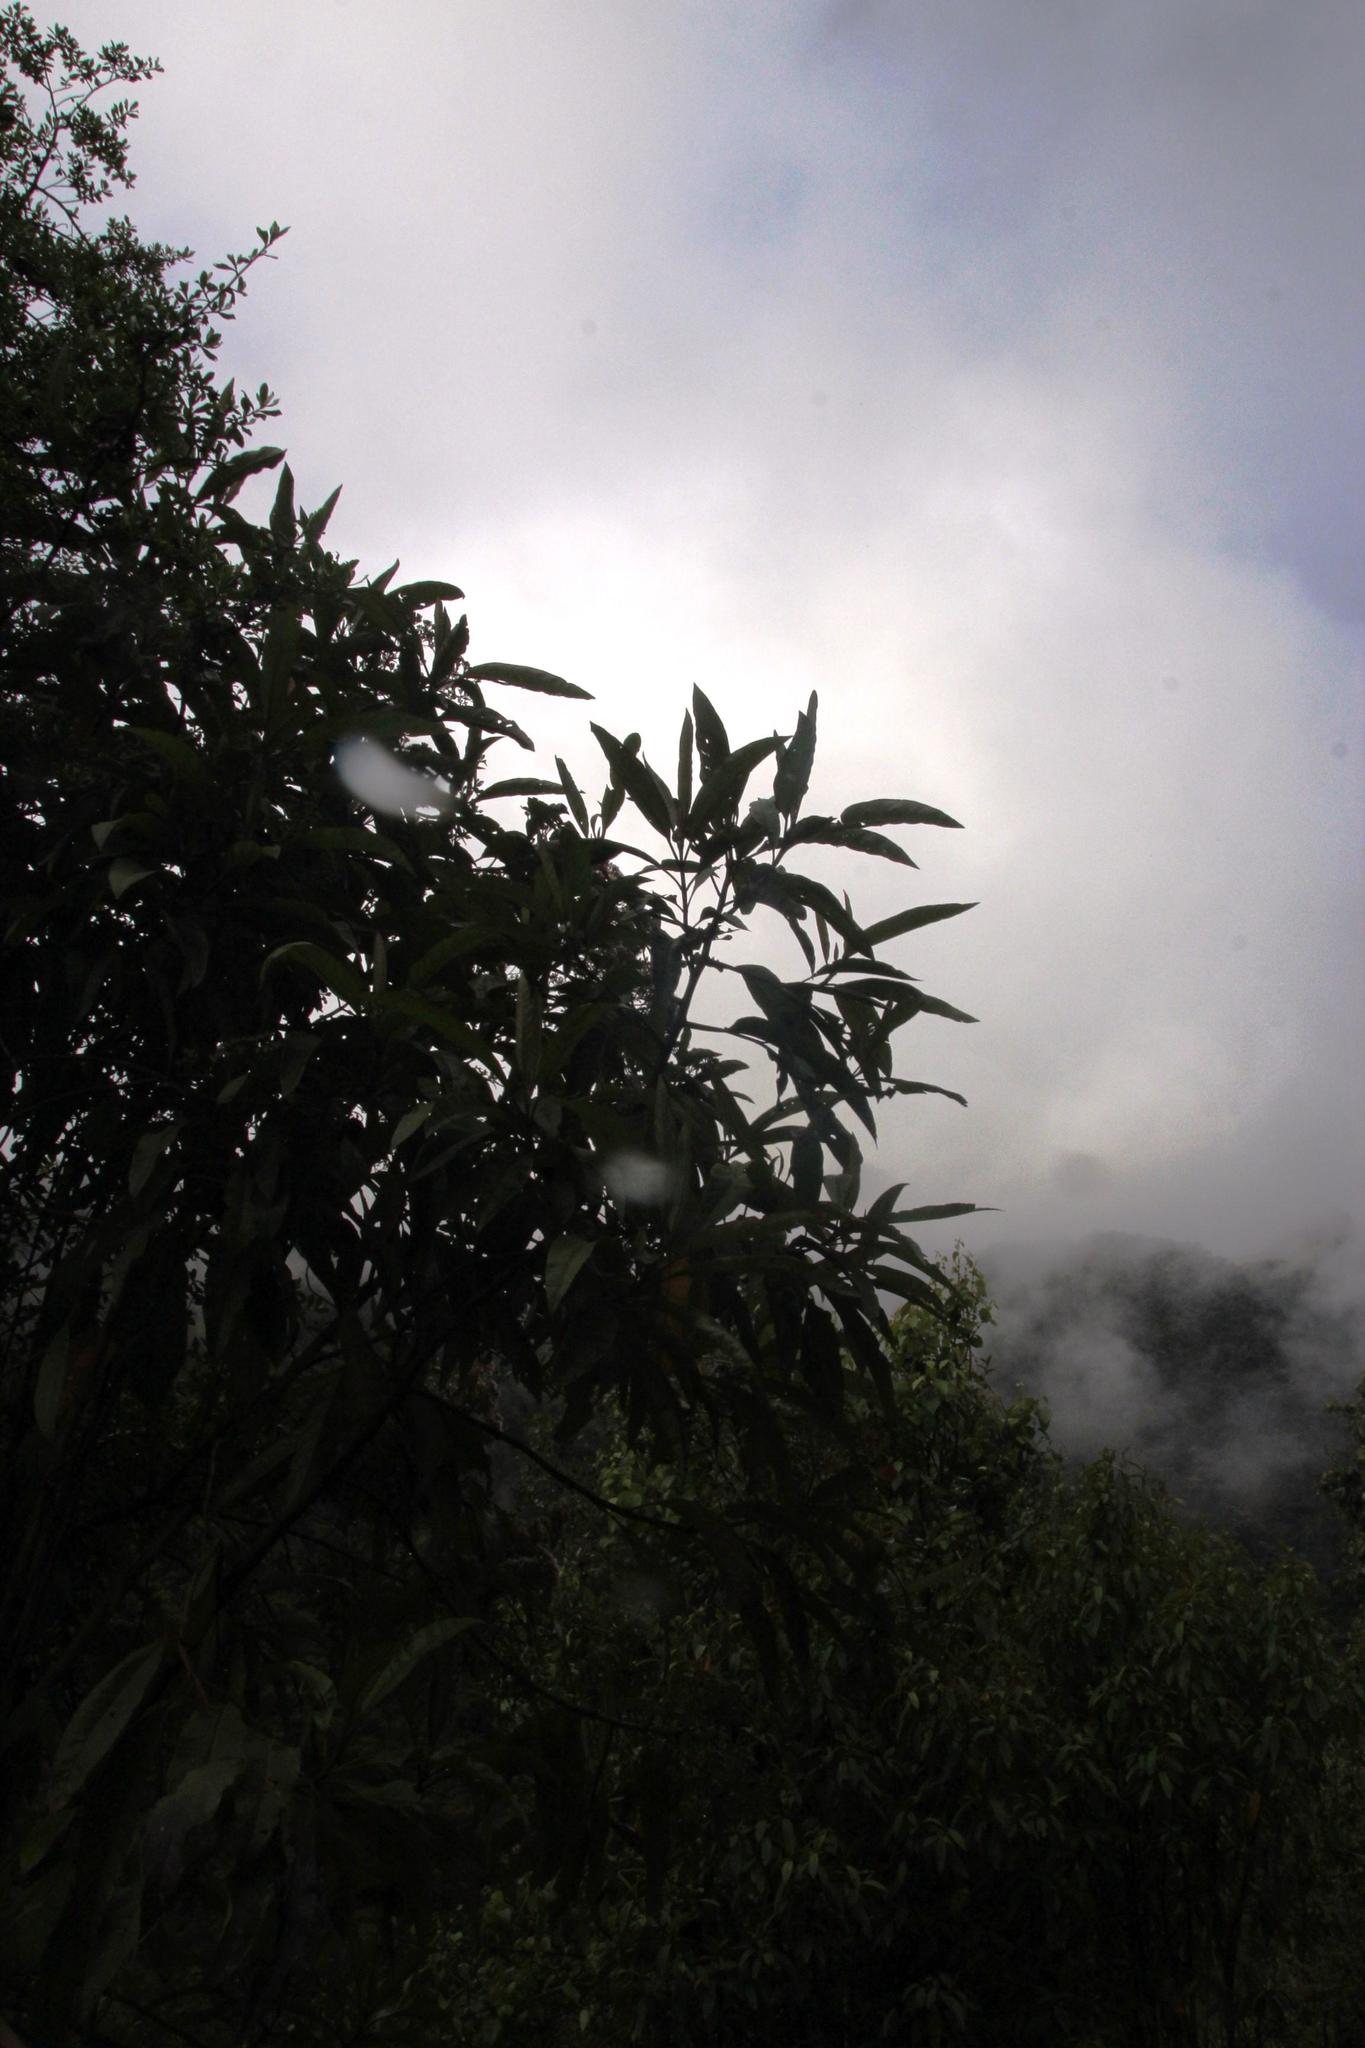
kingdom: Plantae
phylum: Tracheophyta
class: Magnoliopsida
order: Asterales
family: Asteraceae
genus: Aristeguietia
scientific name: Aristeguietia discolor
